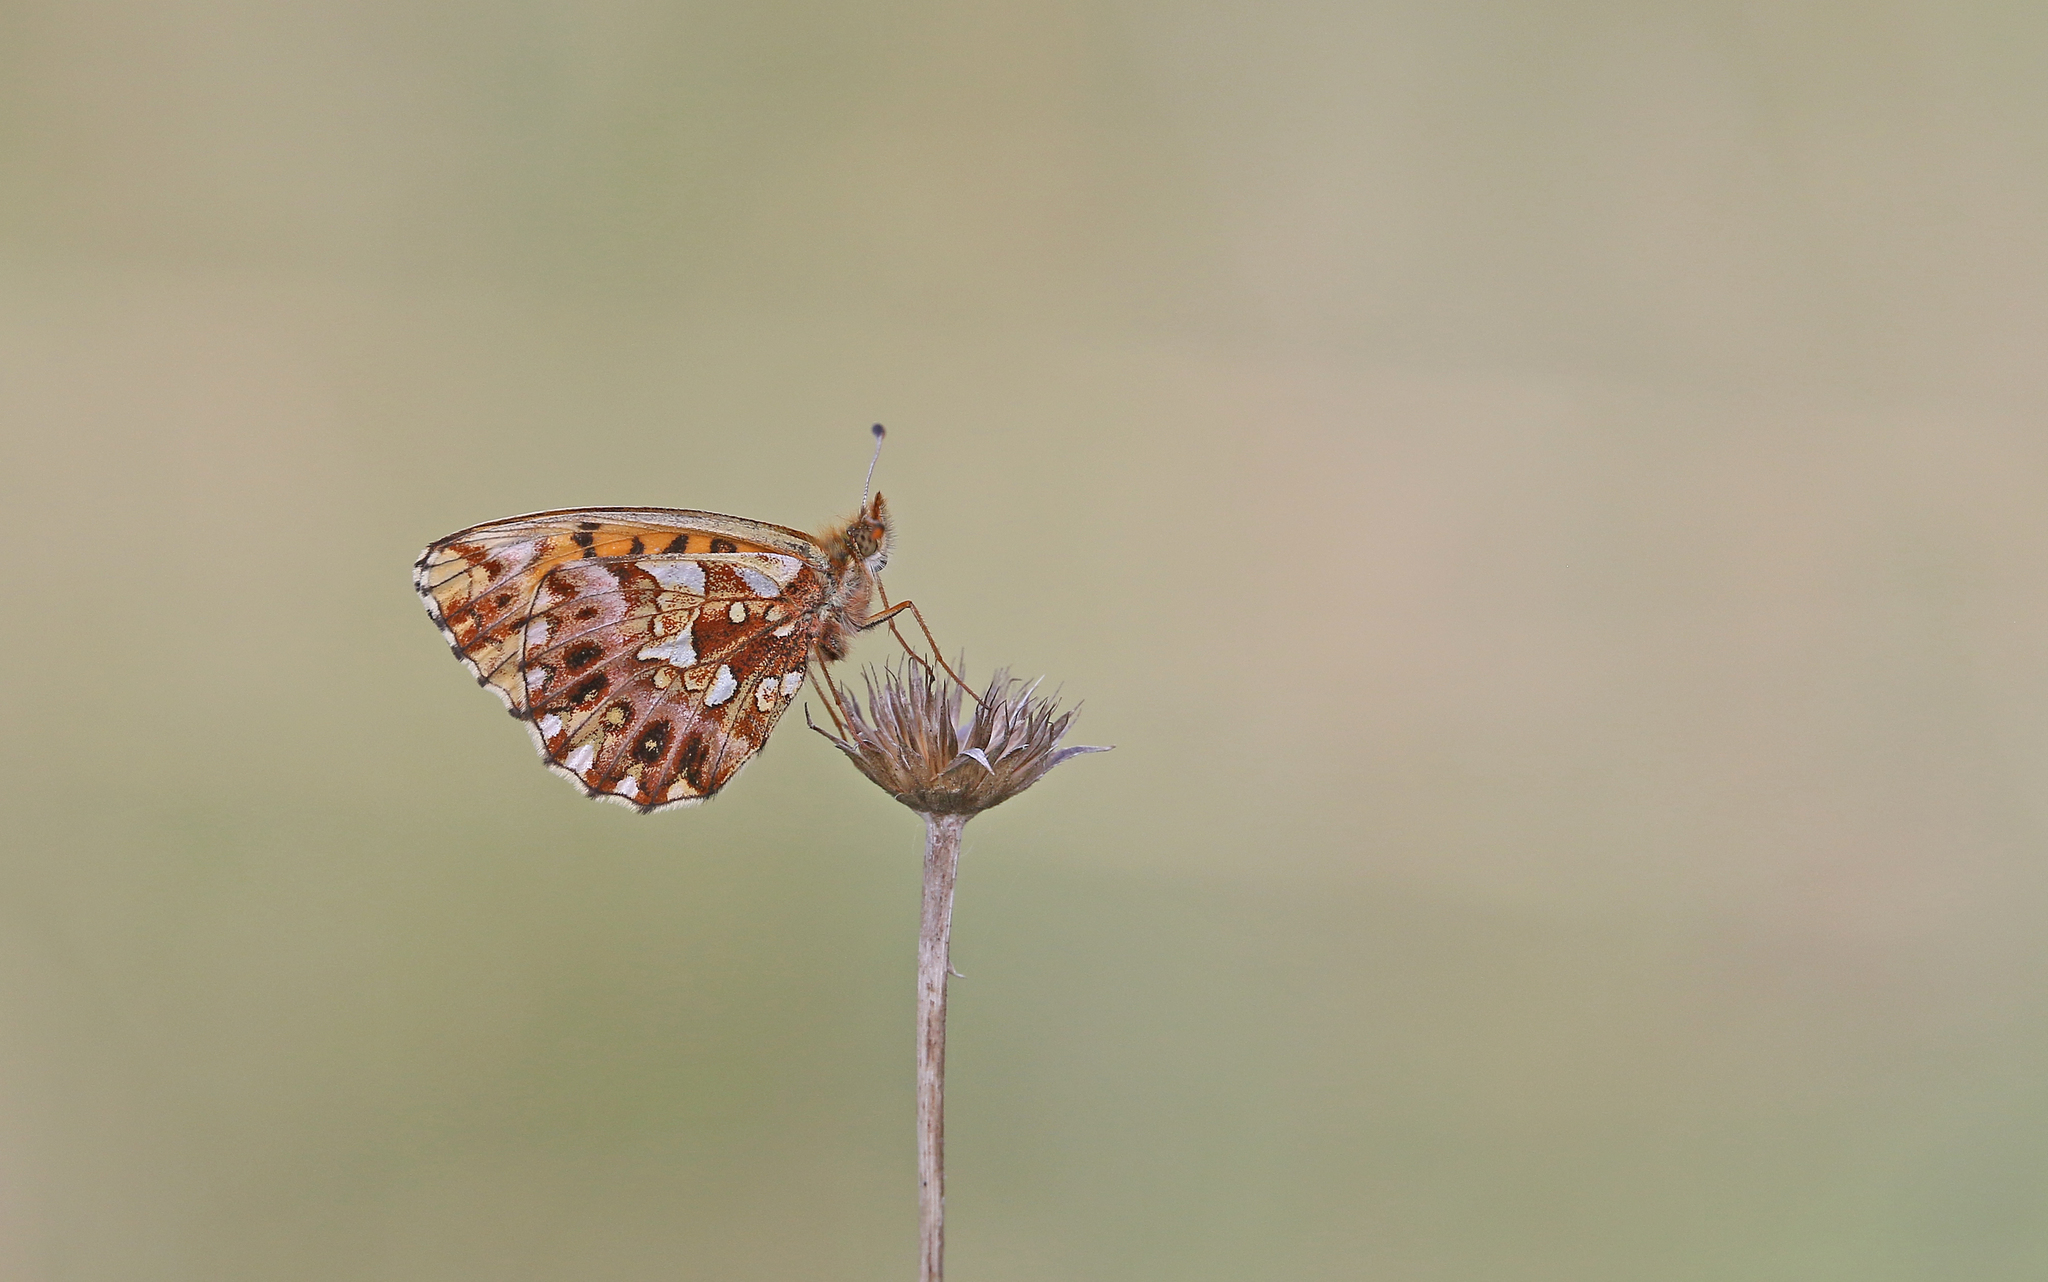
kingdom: Animalia
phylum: Arthropoda
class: Insecta
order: Lepidoptera
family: Nymphalidae
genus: Boloria
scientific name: Boloria dia
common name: Weaver's fritillary
